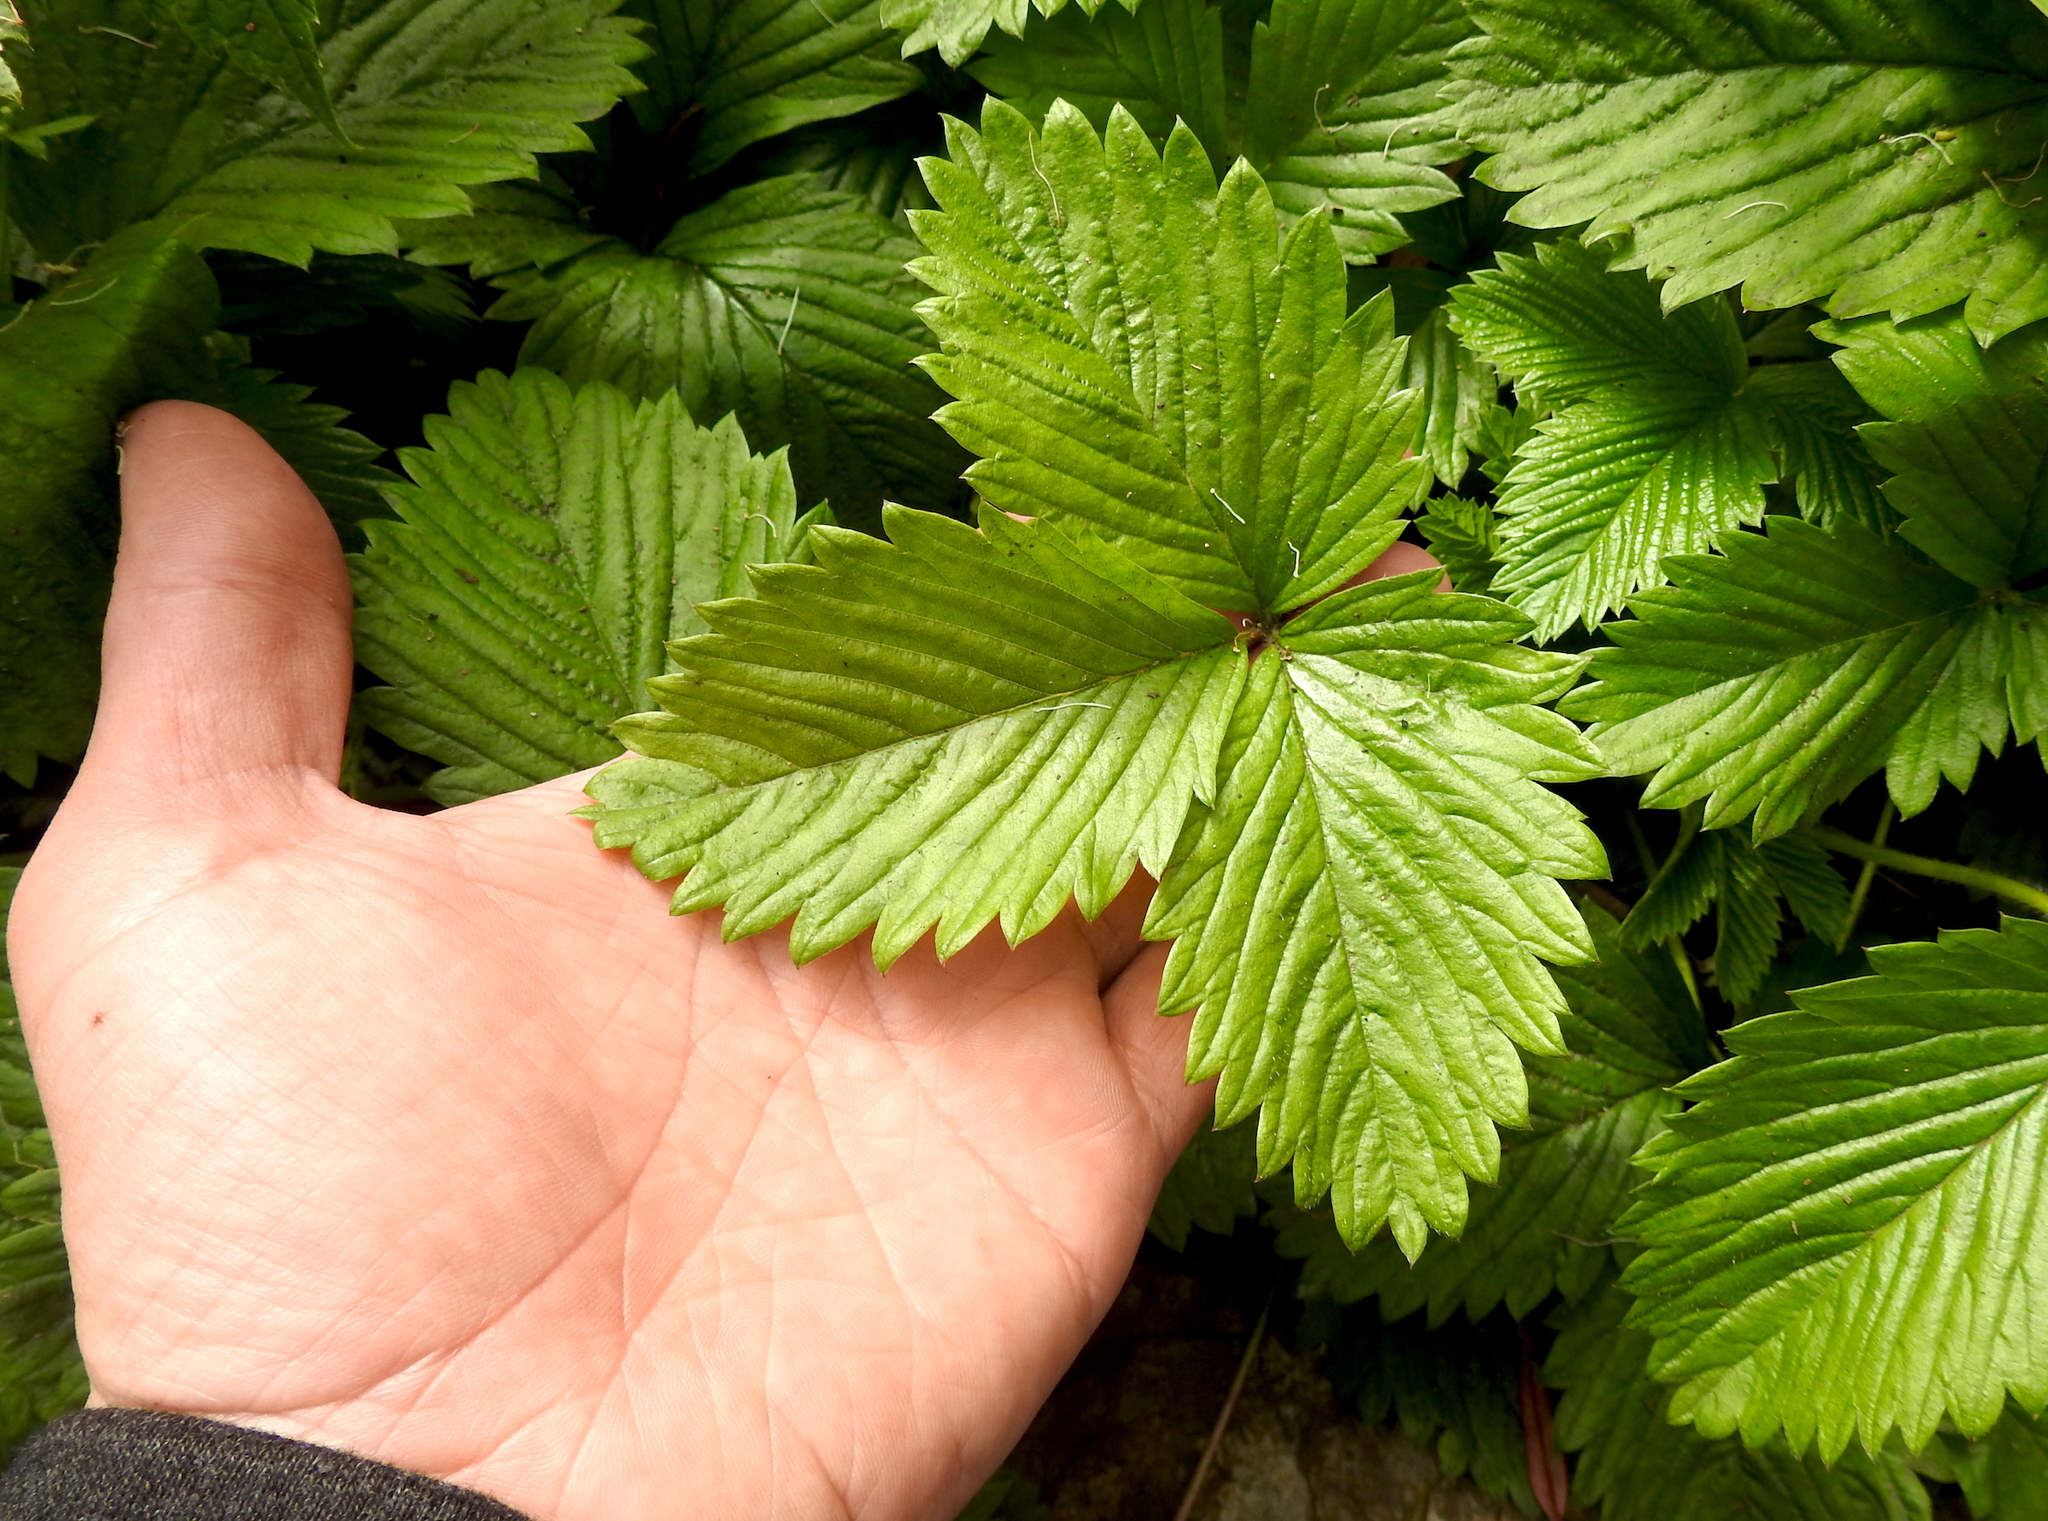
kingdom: Plantae
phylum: Tracheophyta
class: Magnoliopsida
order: Rosales
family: Rosaceae
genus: Fragaria
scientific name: Fragaria vesca
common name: Wild strawberry
